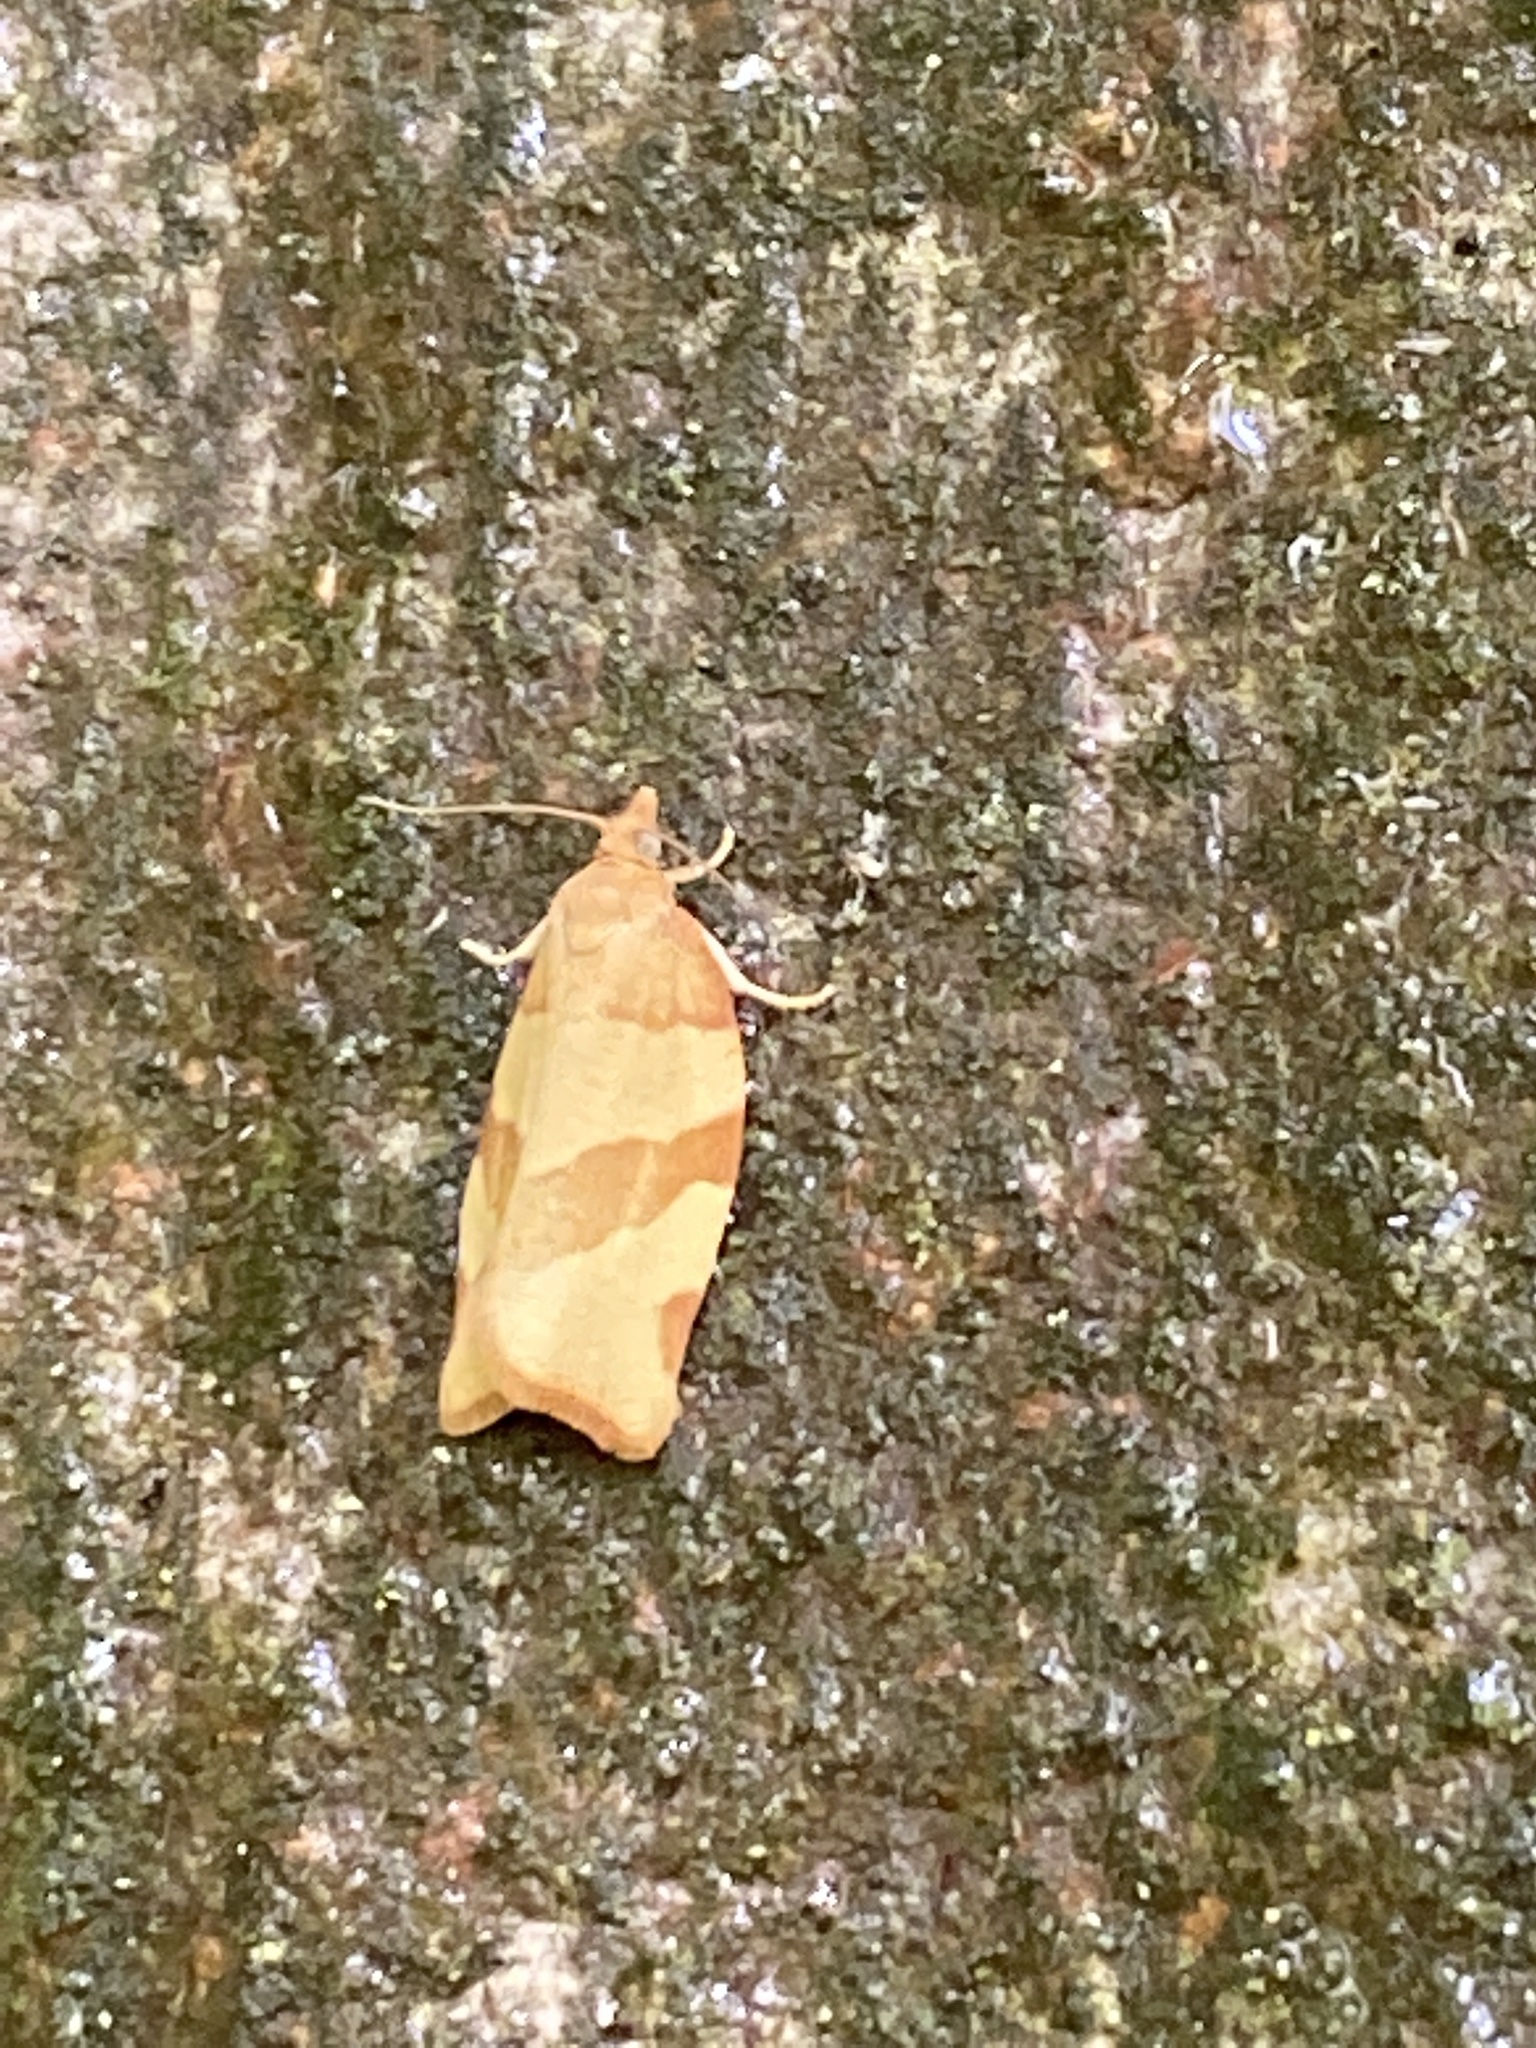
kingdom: Animalia
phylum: Arthropoda
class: Insecta
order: Lepidoptera
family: Tortricidae
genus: Pandemis
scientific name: Pandemis cerasana
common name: Barred fruit-tree tortrix
